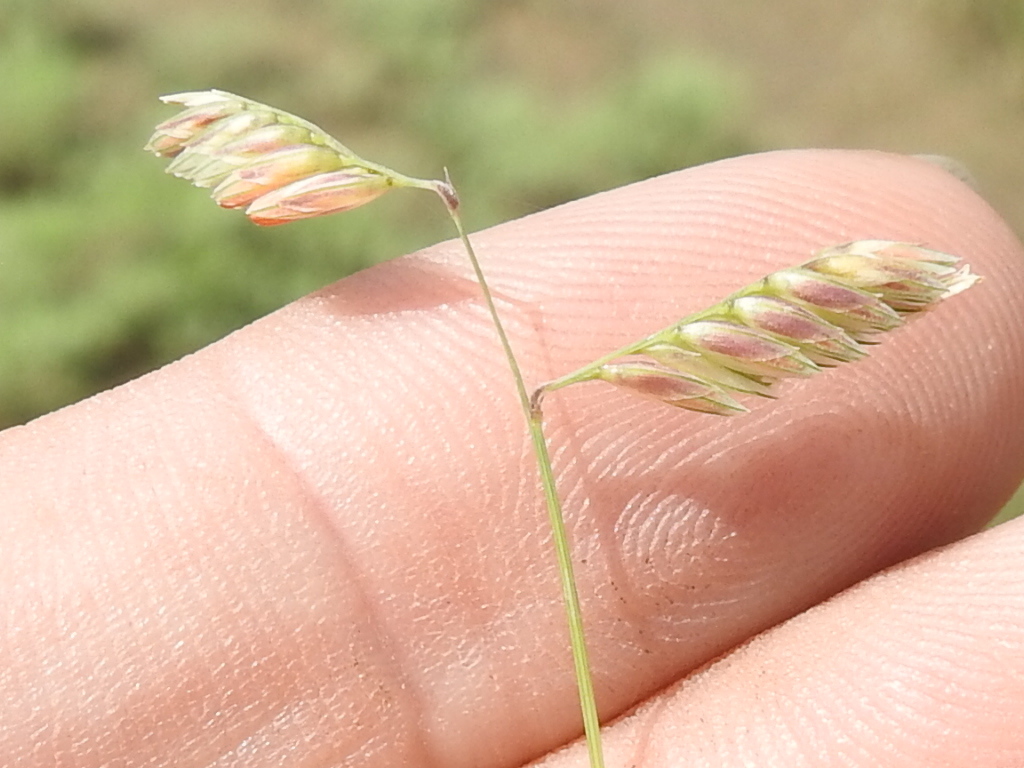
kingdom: Plantae
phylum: Tracheophyta
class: Liliopsida
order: Poales
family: Poaceae
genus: Bouteloua
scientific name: Bouteloua dactyloides
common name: Buffalo grass
